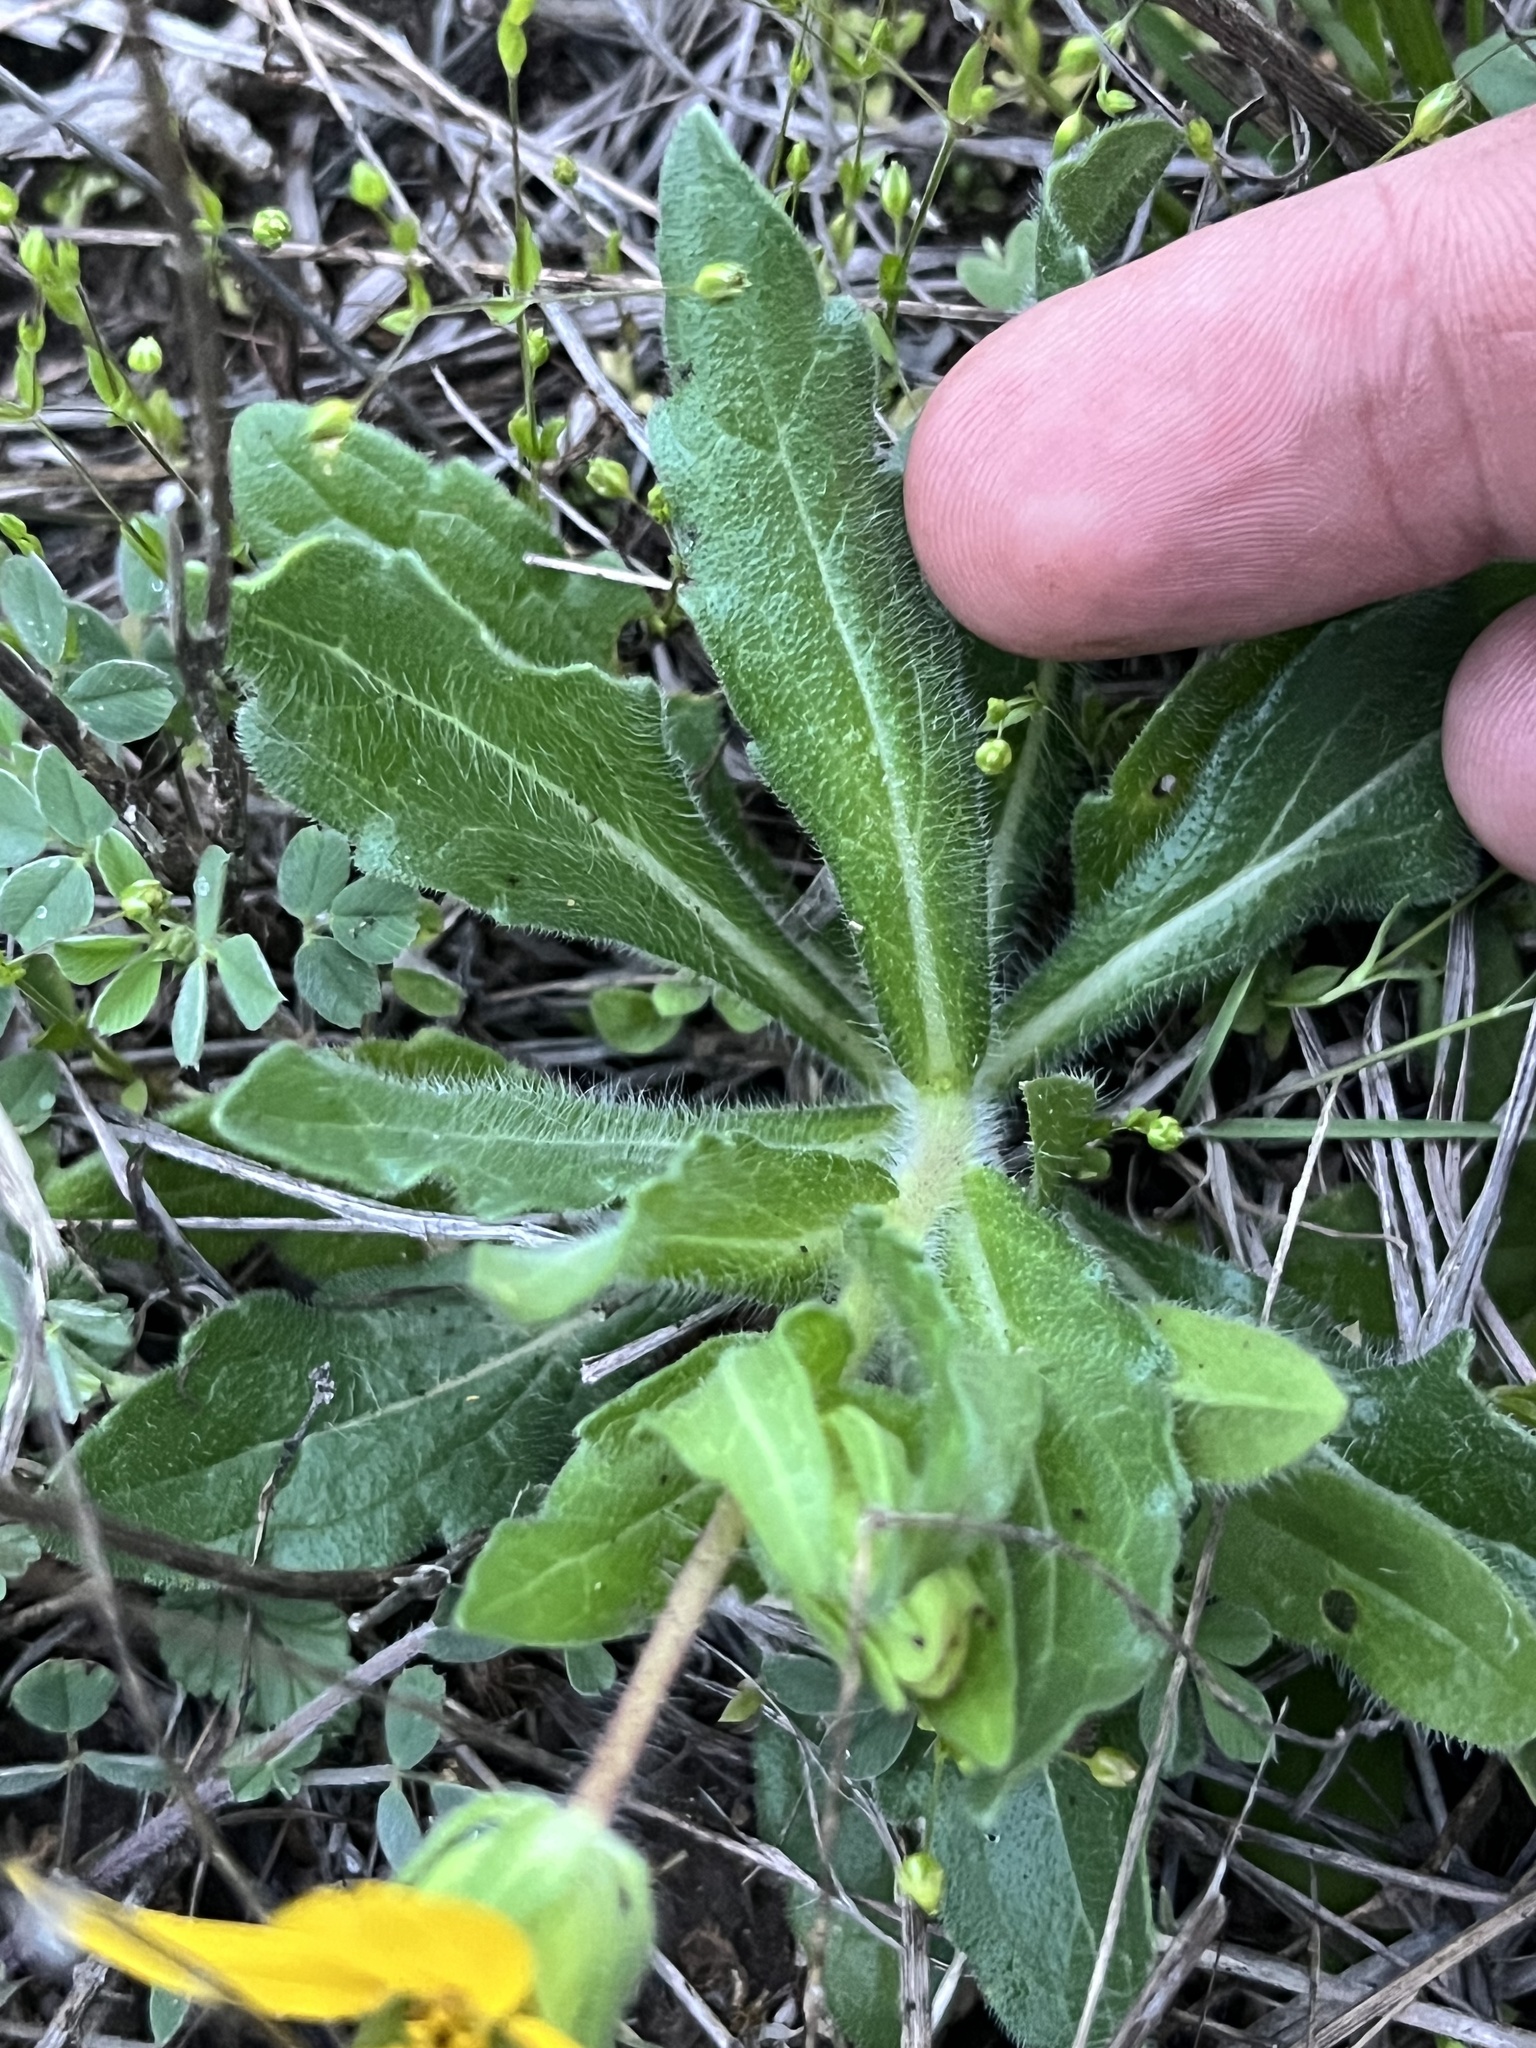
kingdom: Plantae
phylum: Tracheophyta
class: Magnoliopsida
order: Asterales
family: Asteraceae
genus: Lindheimera
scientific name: Lindheimera texana
